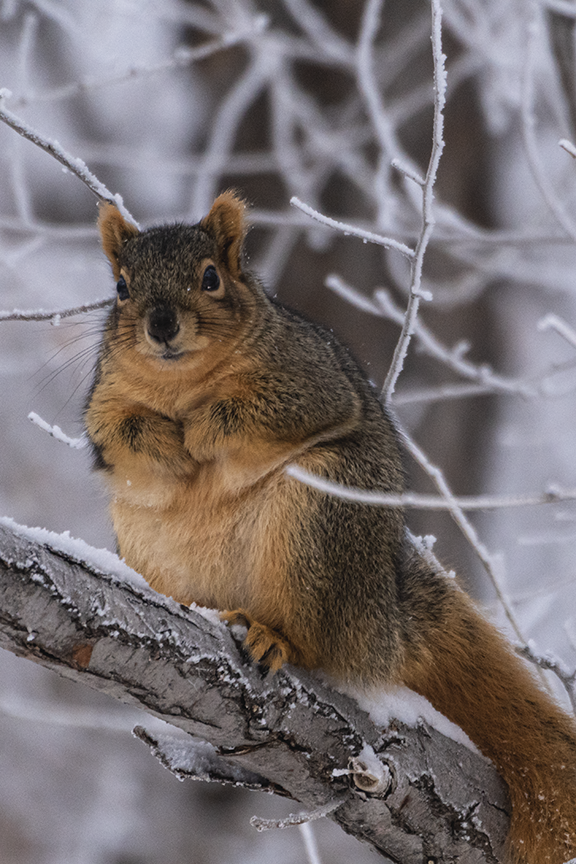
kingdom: Animalia
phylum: Chordata
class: Mammalia
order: Rodentia
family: Sciuridae
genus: Sciurus
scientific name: Sciurus niger
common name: Fox squirrel
